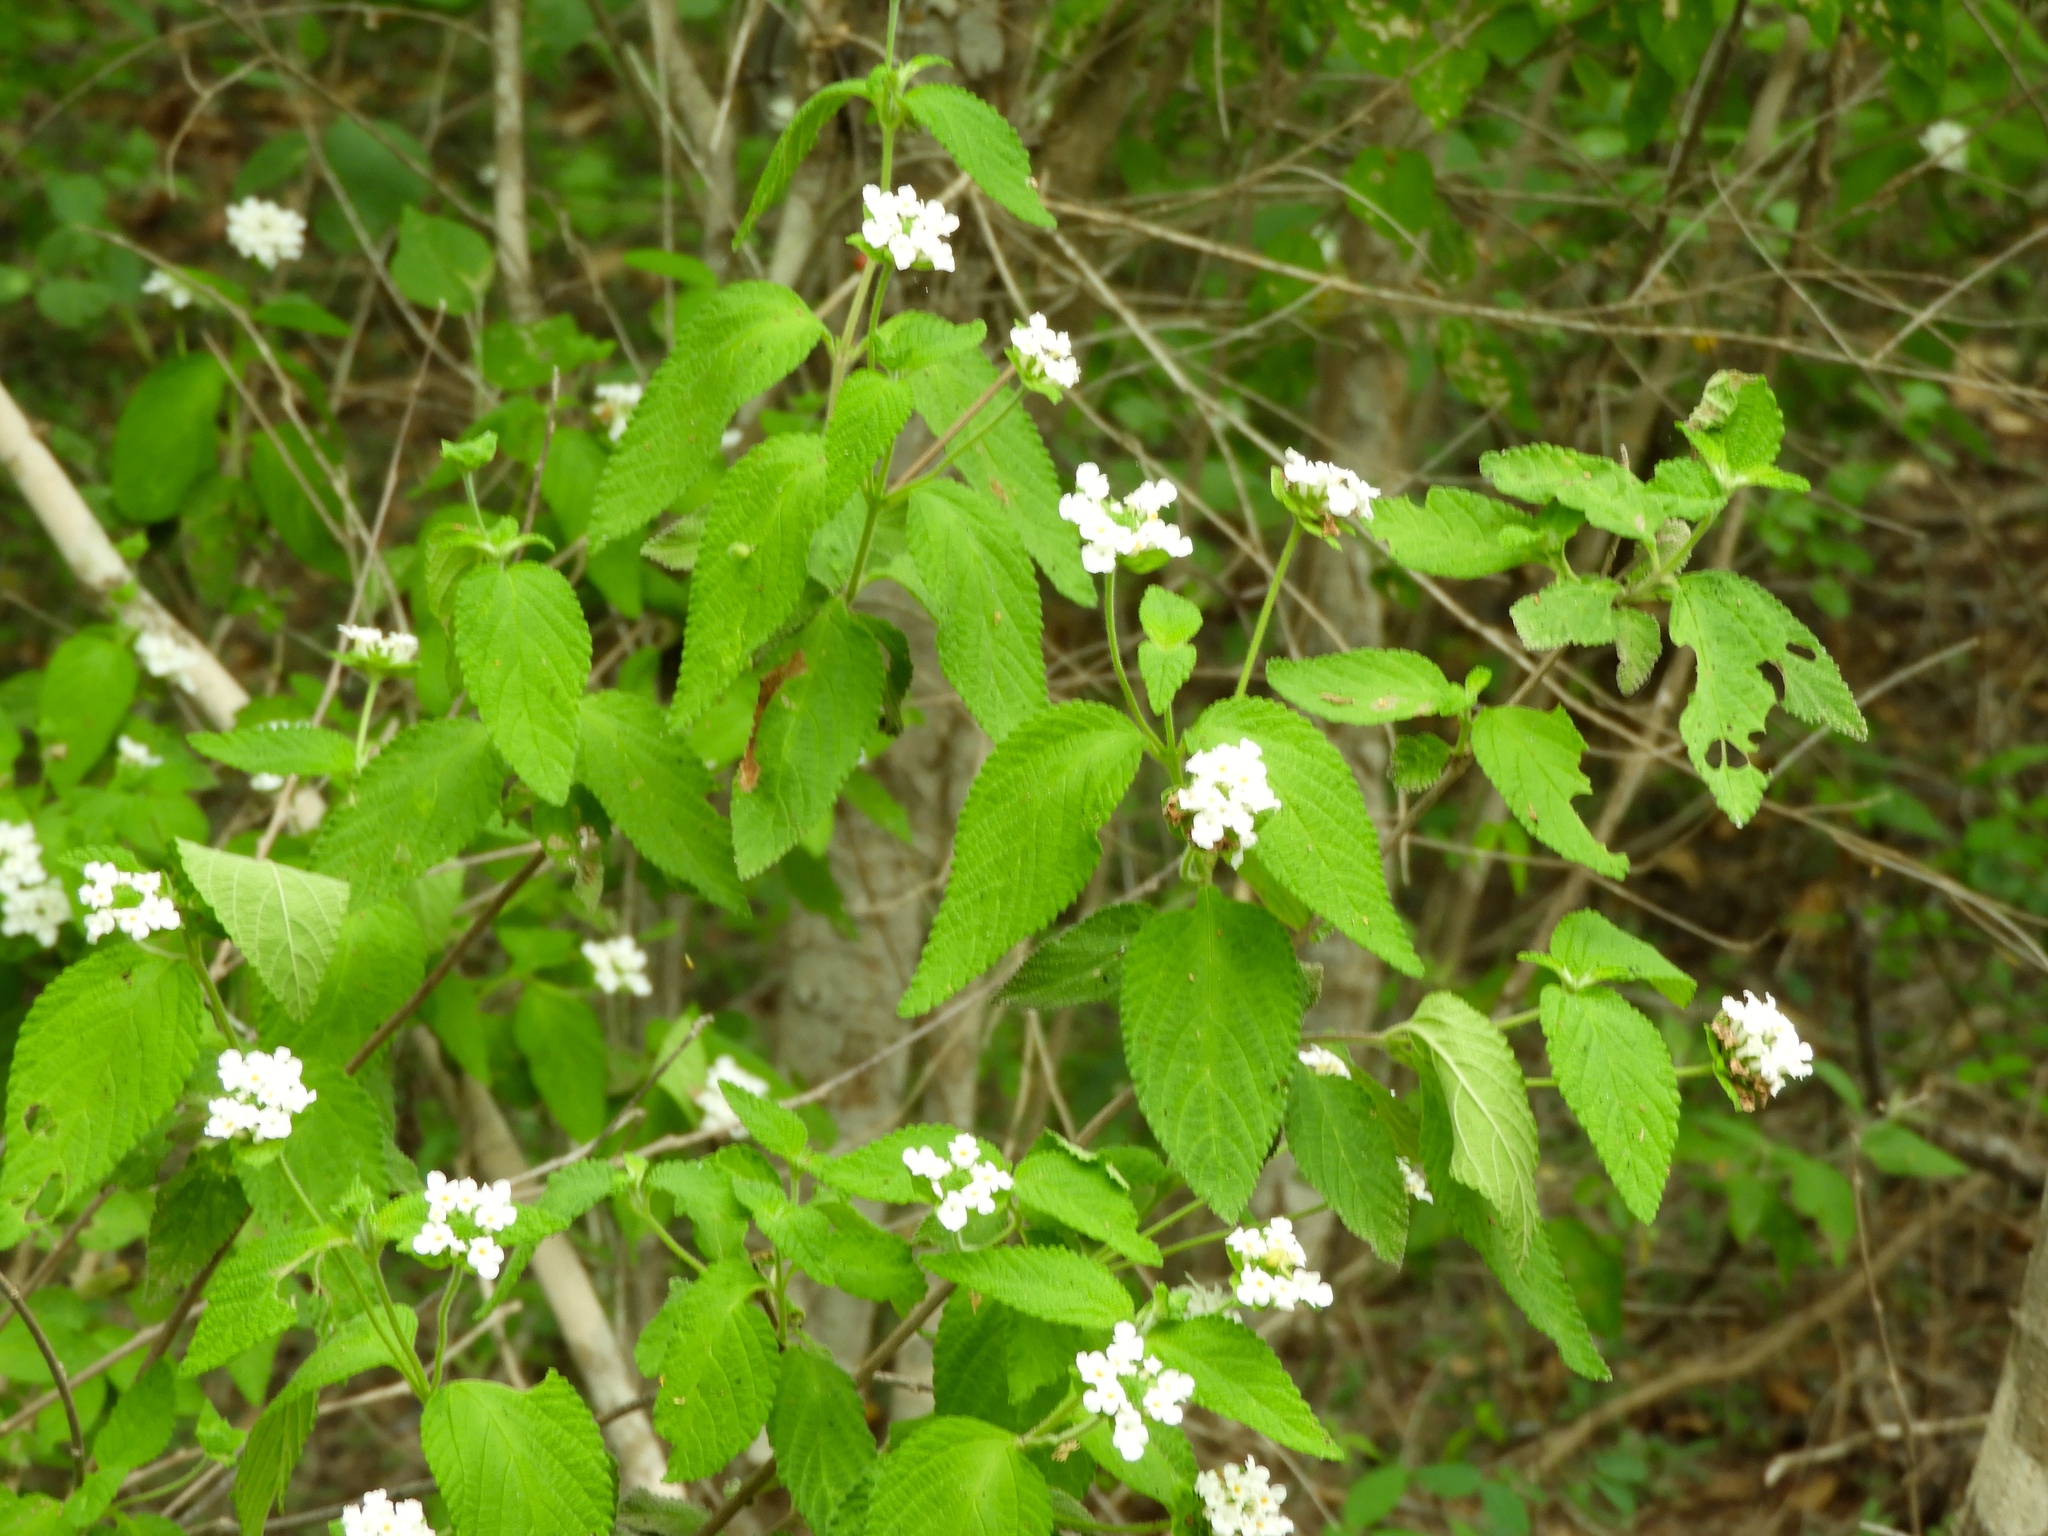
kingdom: Plantae
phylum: Tracheophyta
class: Magnoliopsida
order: Lamiales
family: Verbenaceae
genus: Lantana
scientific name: Lantana velutina
